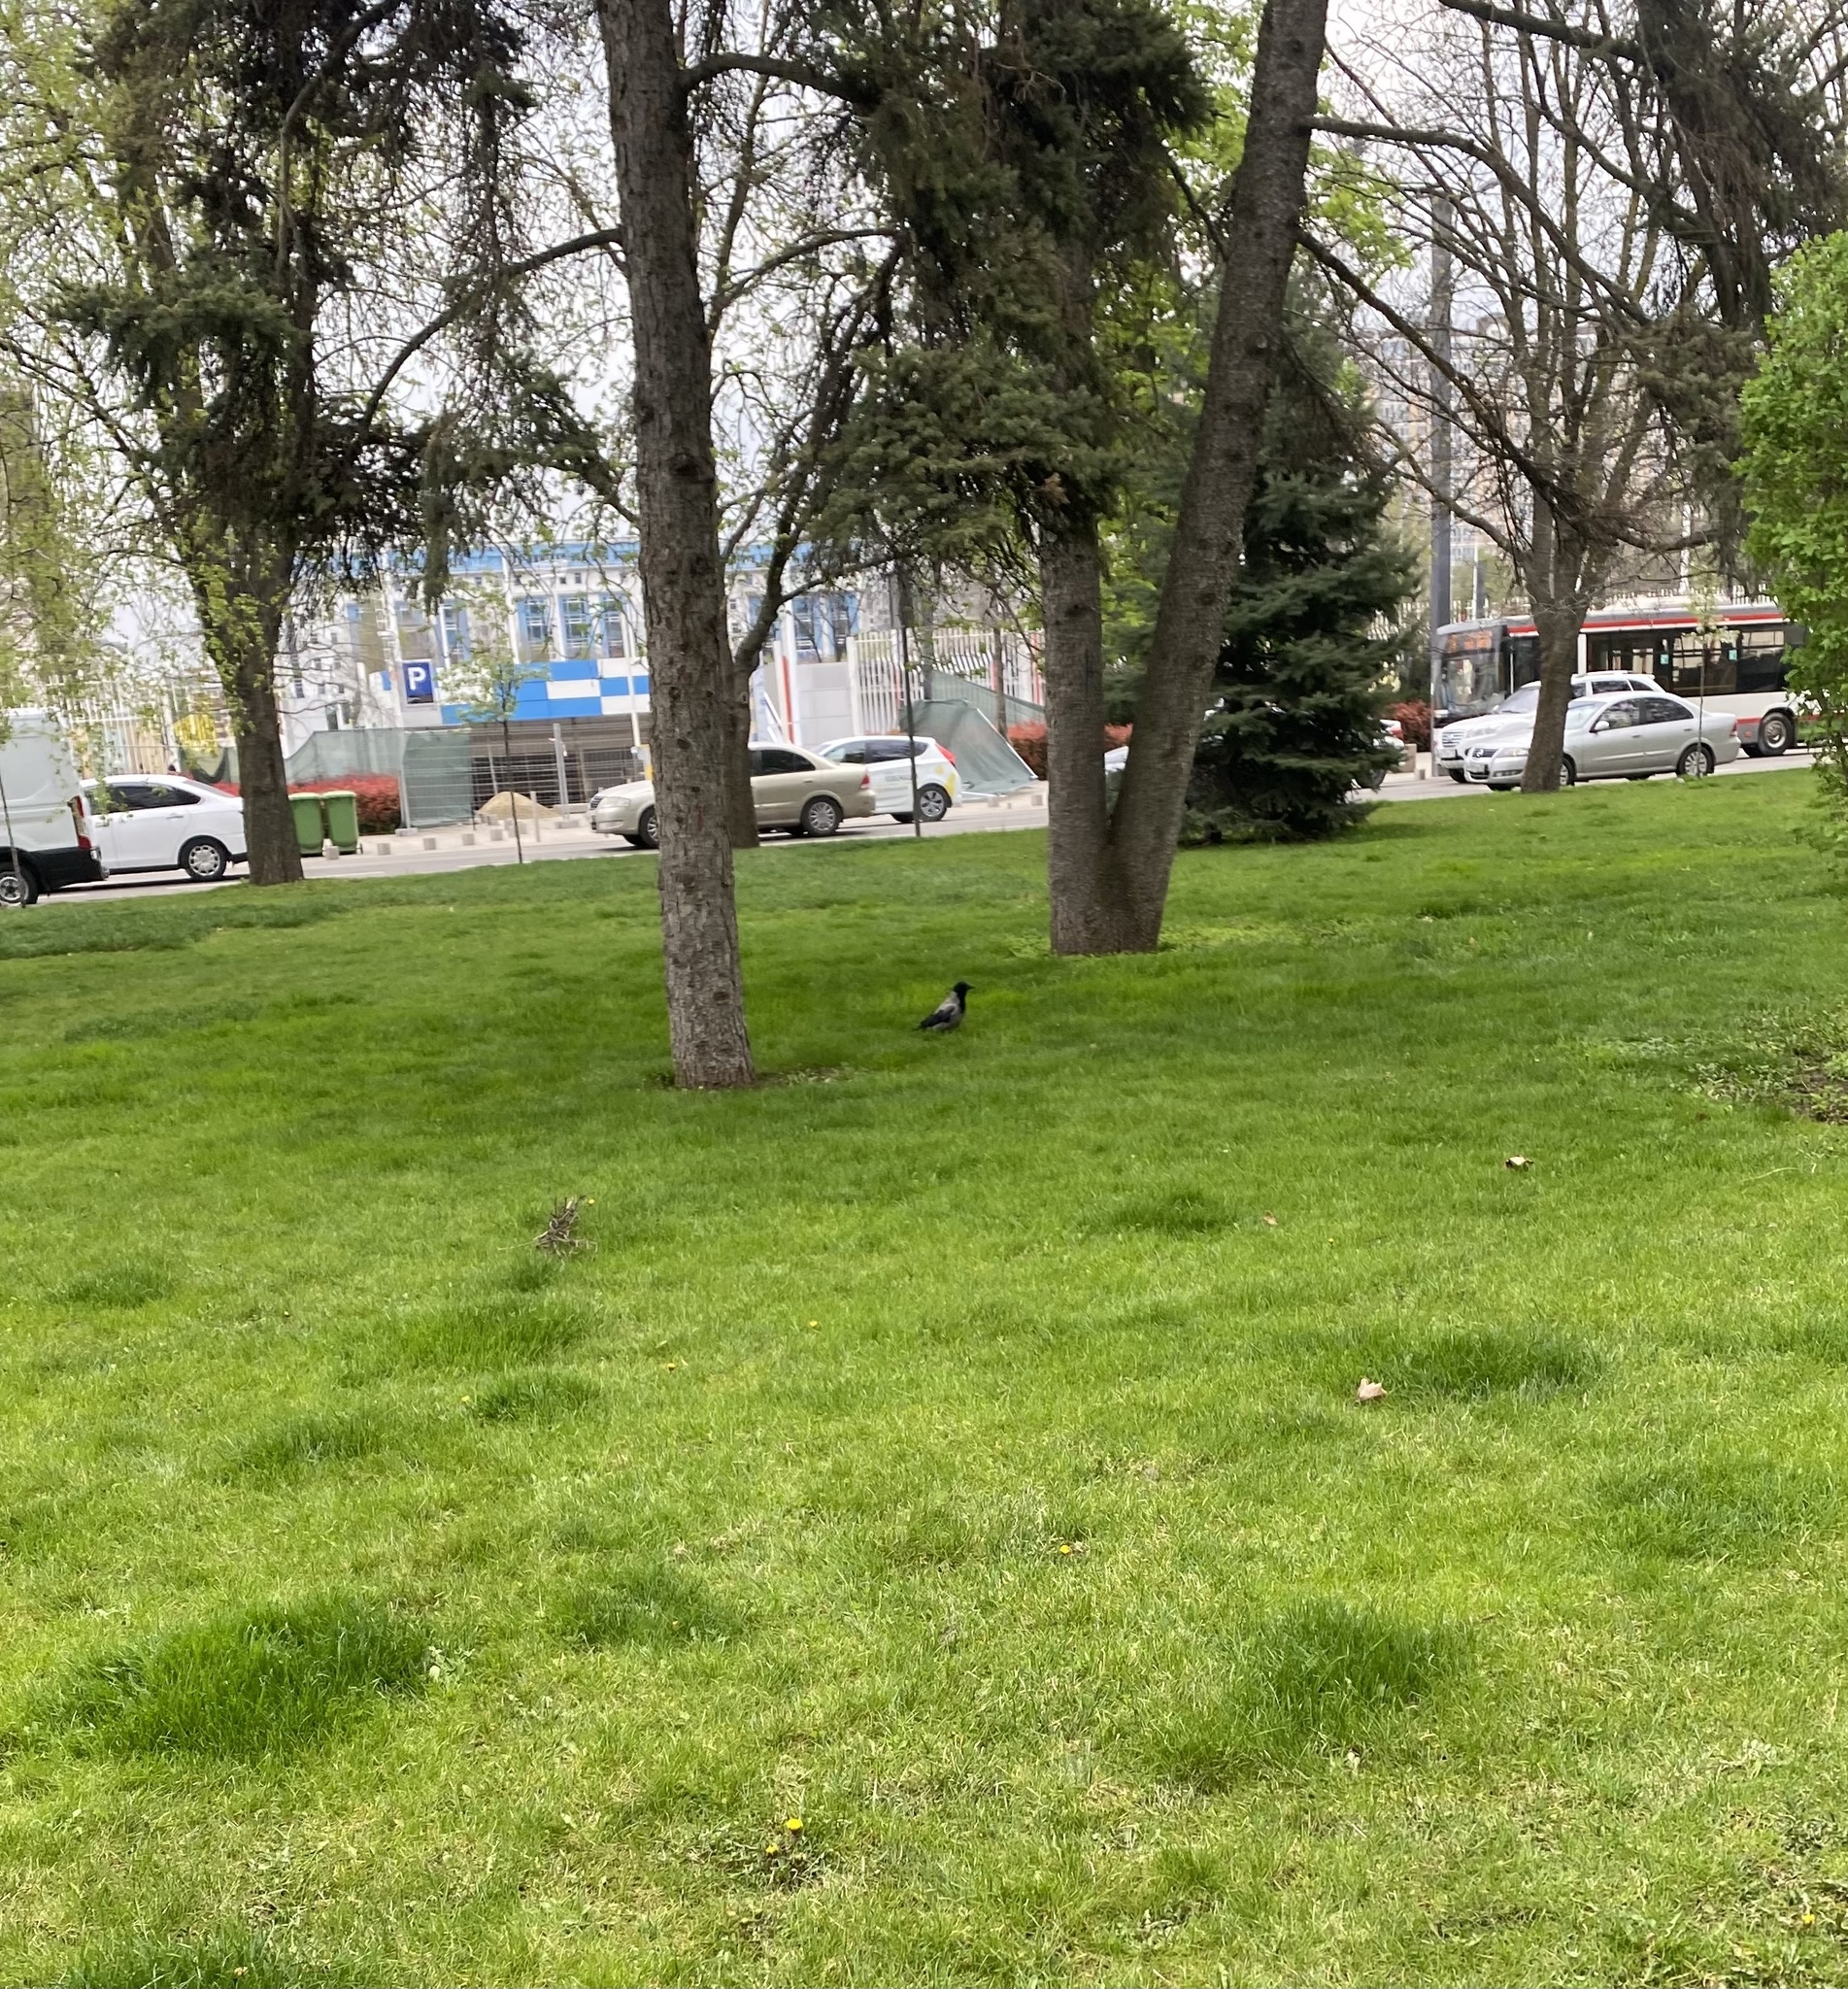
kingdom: Animalia
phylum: Chordata
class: Aves
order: Passeriformes
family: Corvidae
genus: Corvus
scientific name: Corvus cornix
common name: Hooded crow
